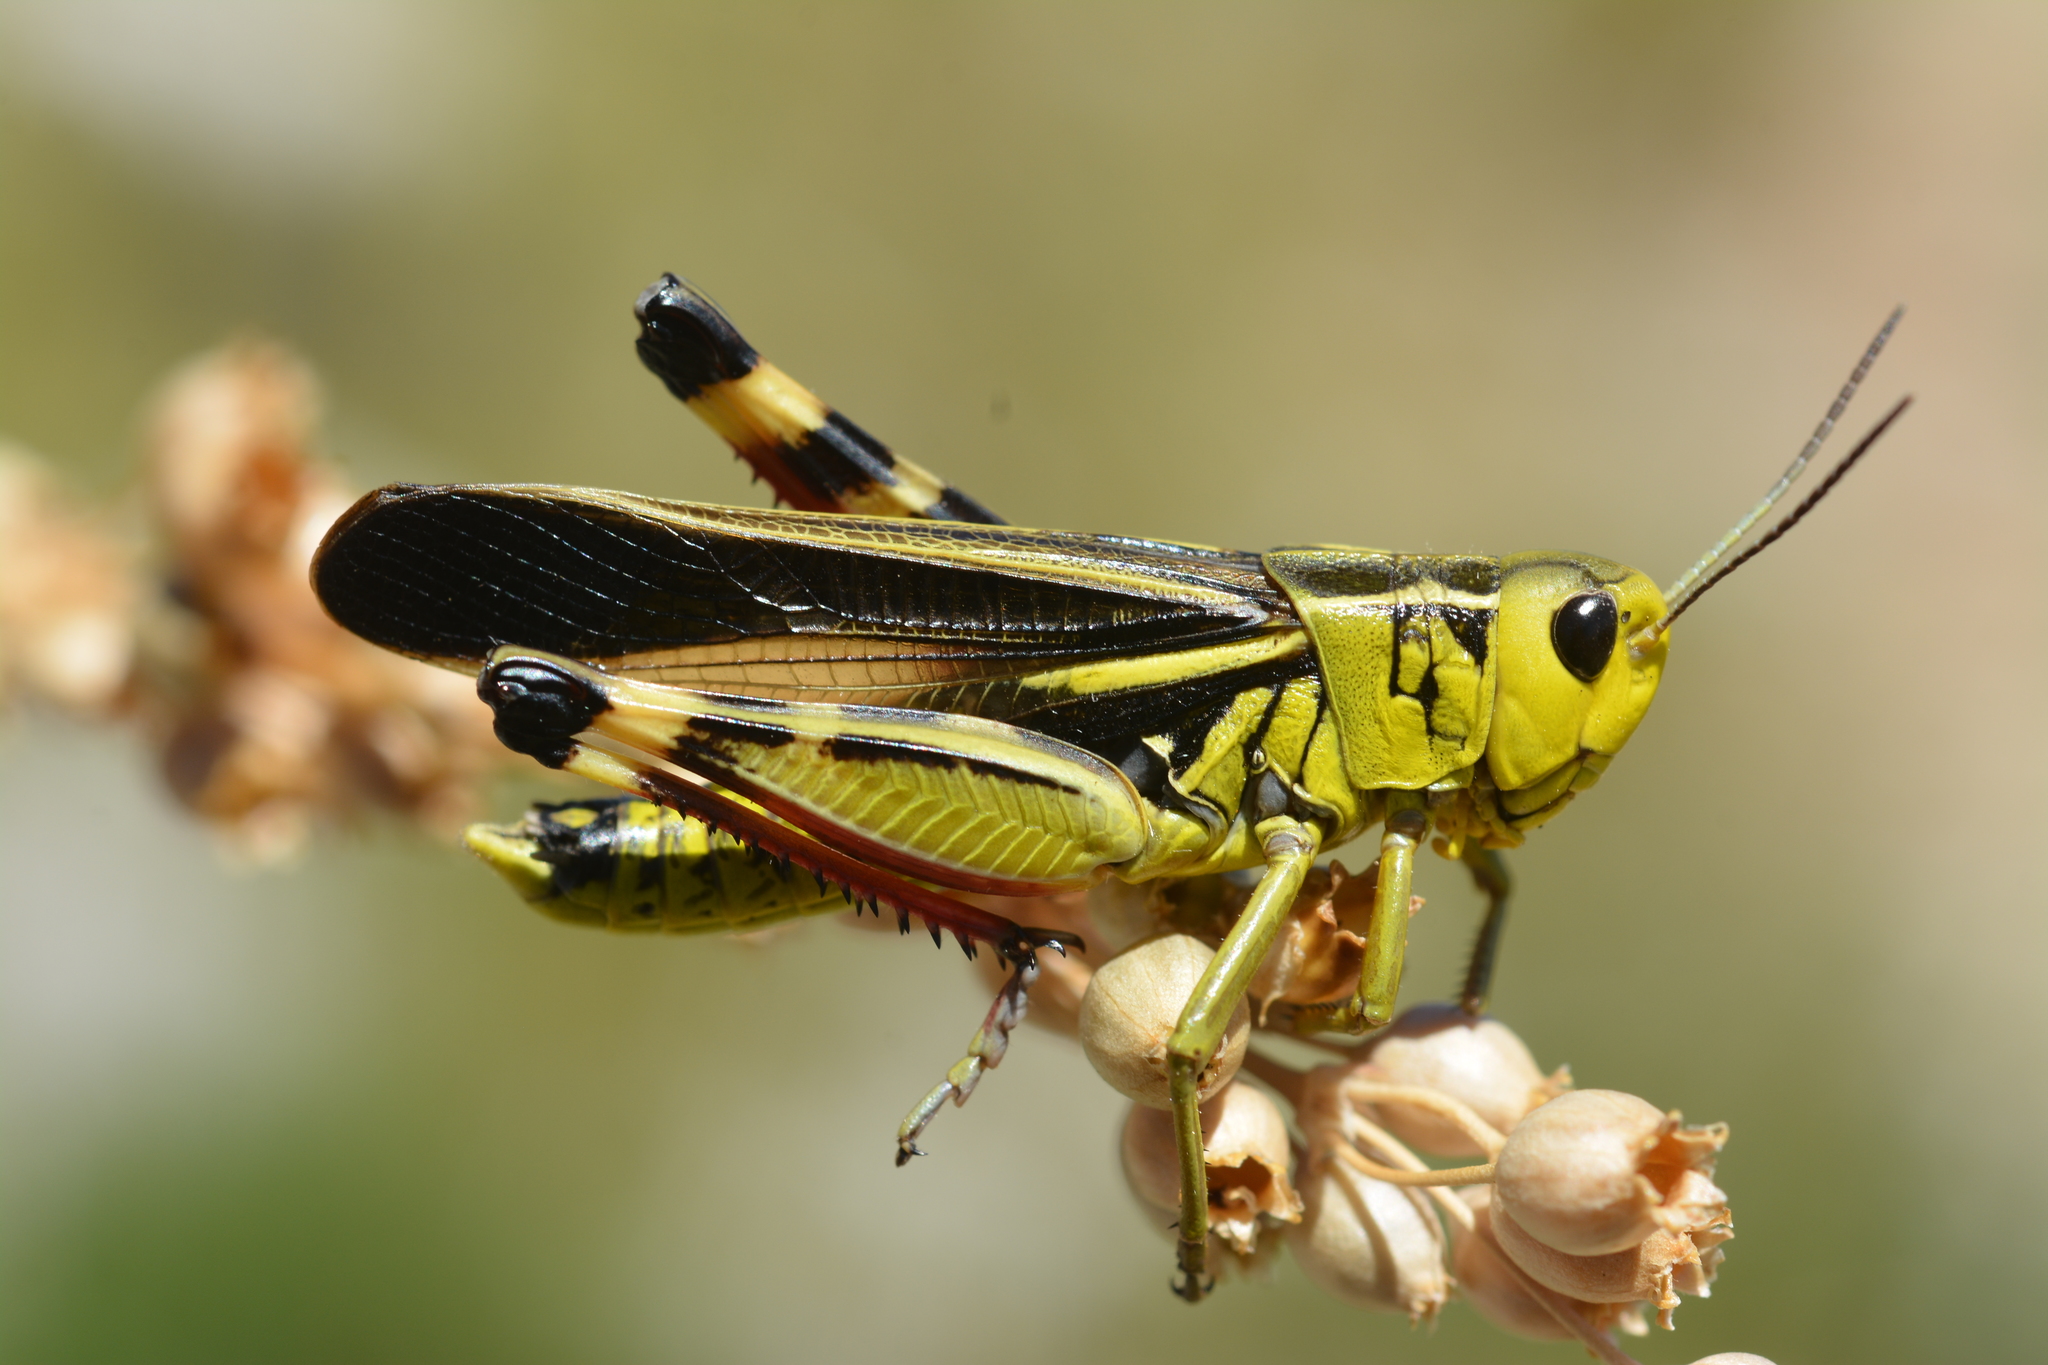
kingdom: Animalia
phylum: Arthropoda
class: Insecta
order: Orthoptera
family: Acrididae
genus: Arcyptera
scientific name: Arcyptera fusca
